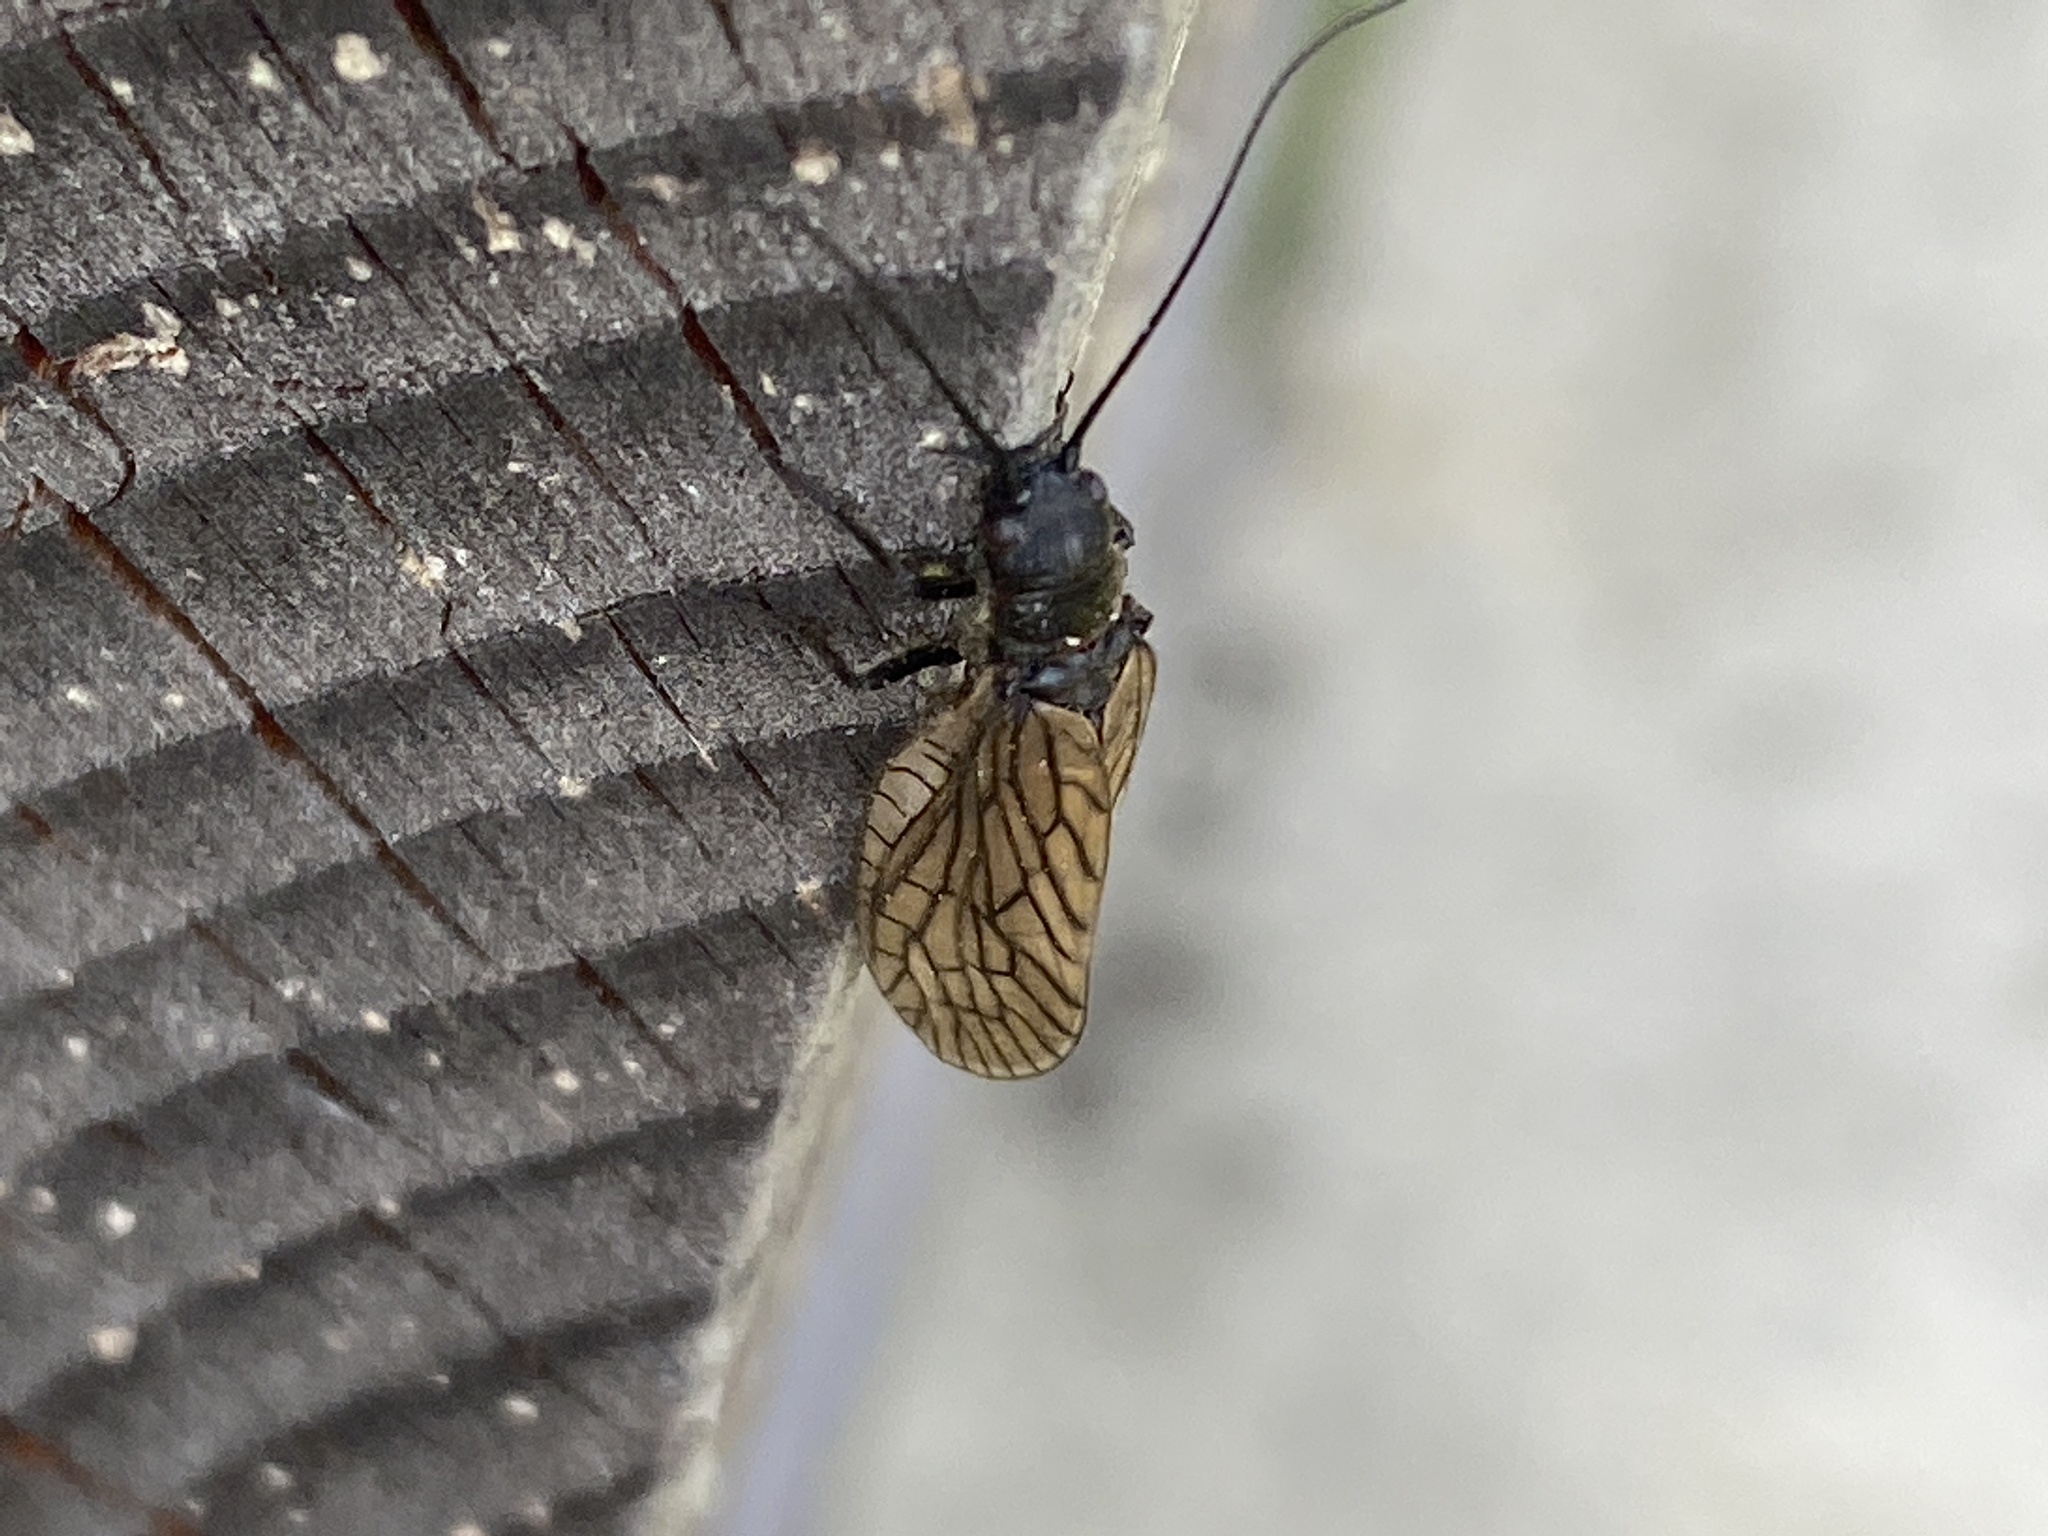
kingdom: Animalia
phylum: Arthropoda
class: Insecta
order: Megaloptera
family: Sialidae
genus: Sialis
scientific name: Sialis
